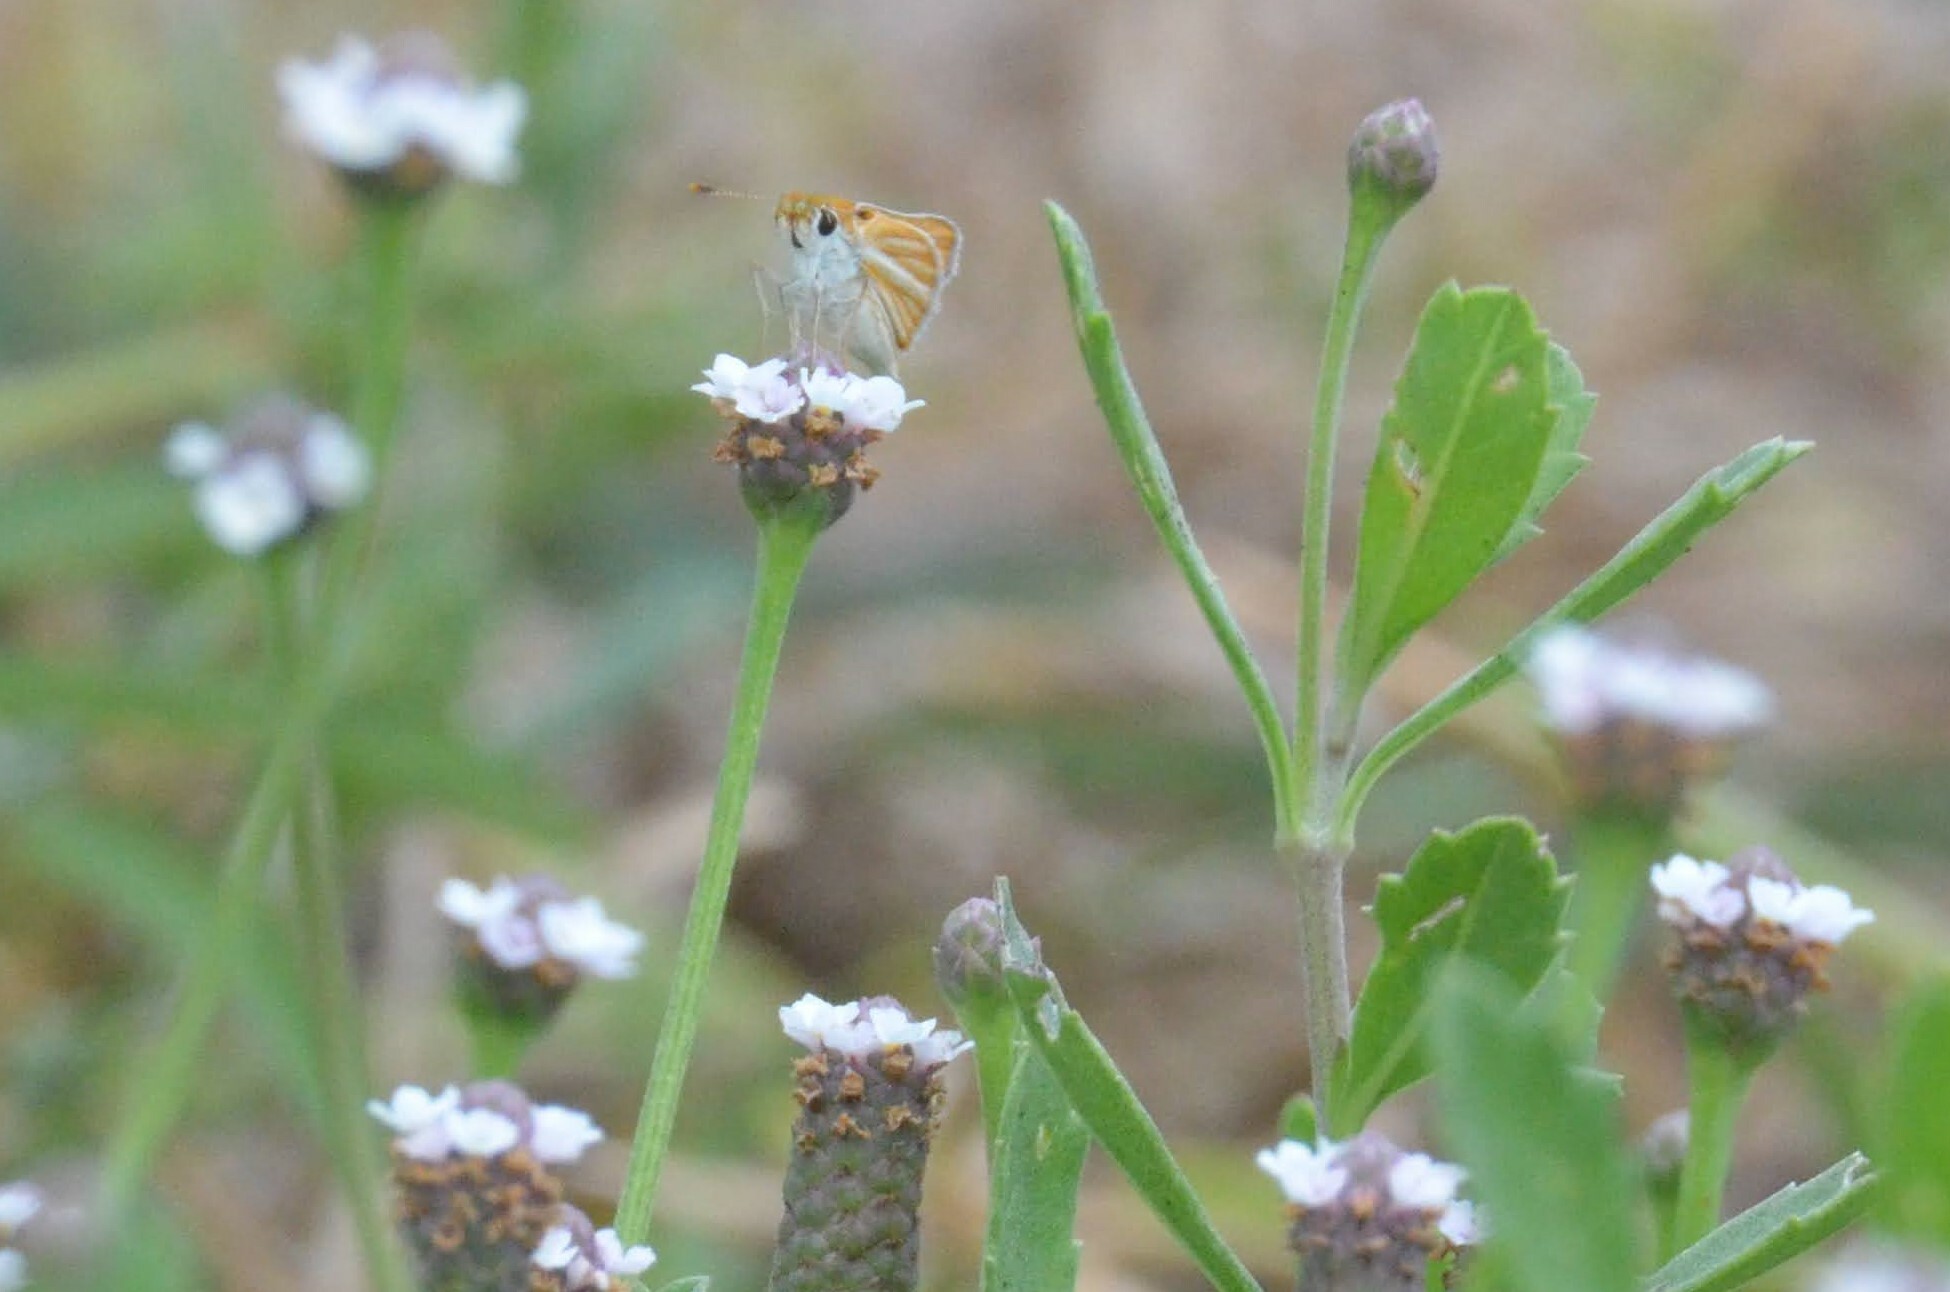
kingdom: Animalia
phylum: Arthropoda
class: Insecta
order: Lepidoptera
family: Hesperiidae
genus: Copaeodes
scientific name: Copaeodes minima
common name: Southern skipperling
